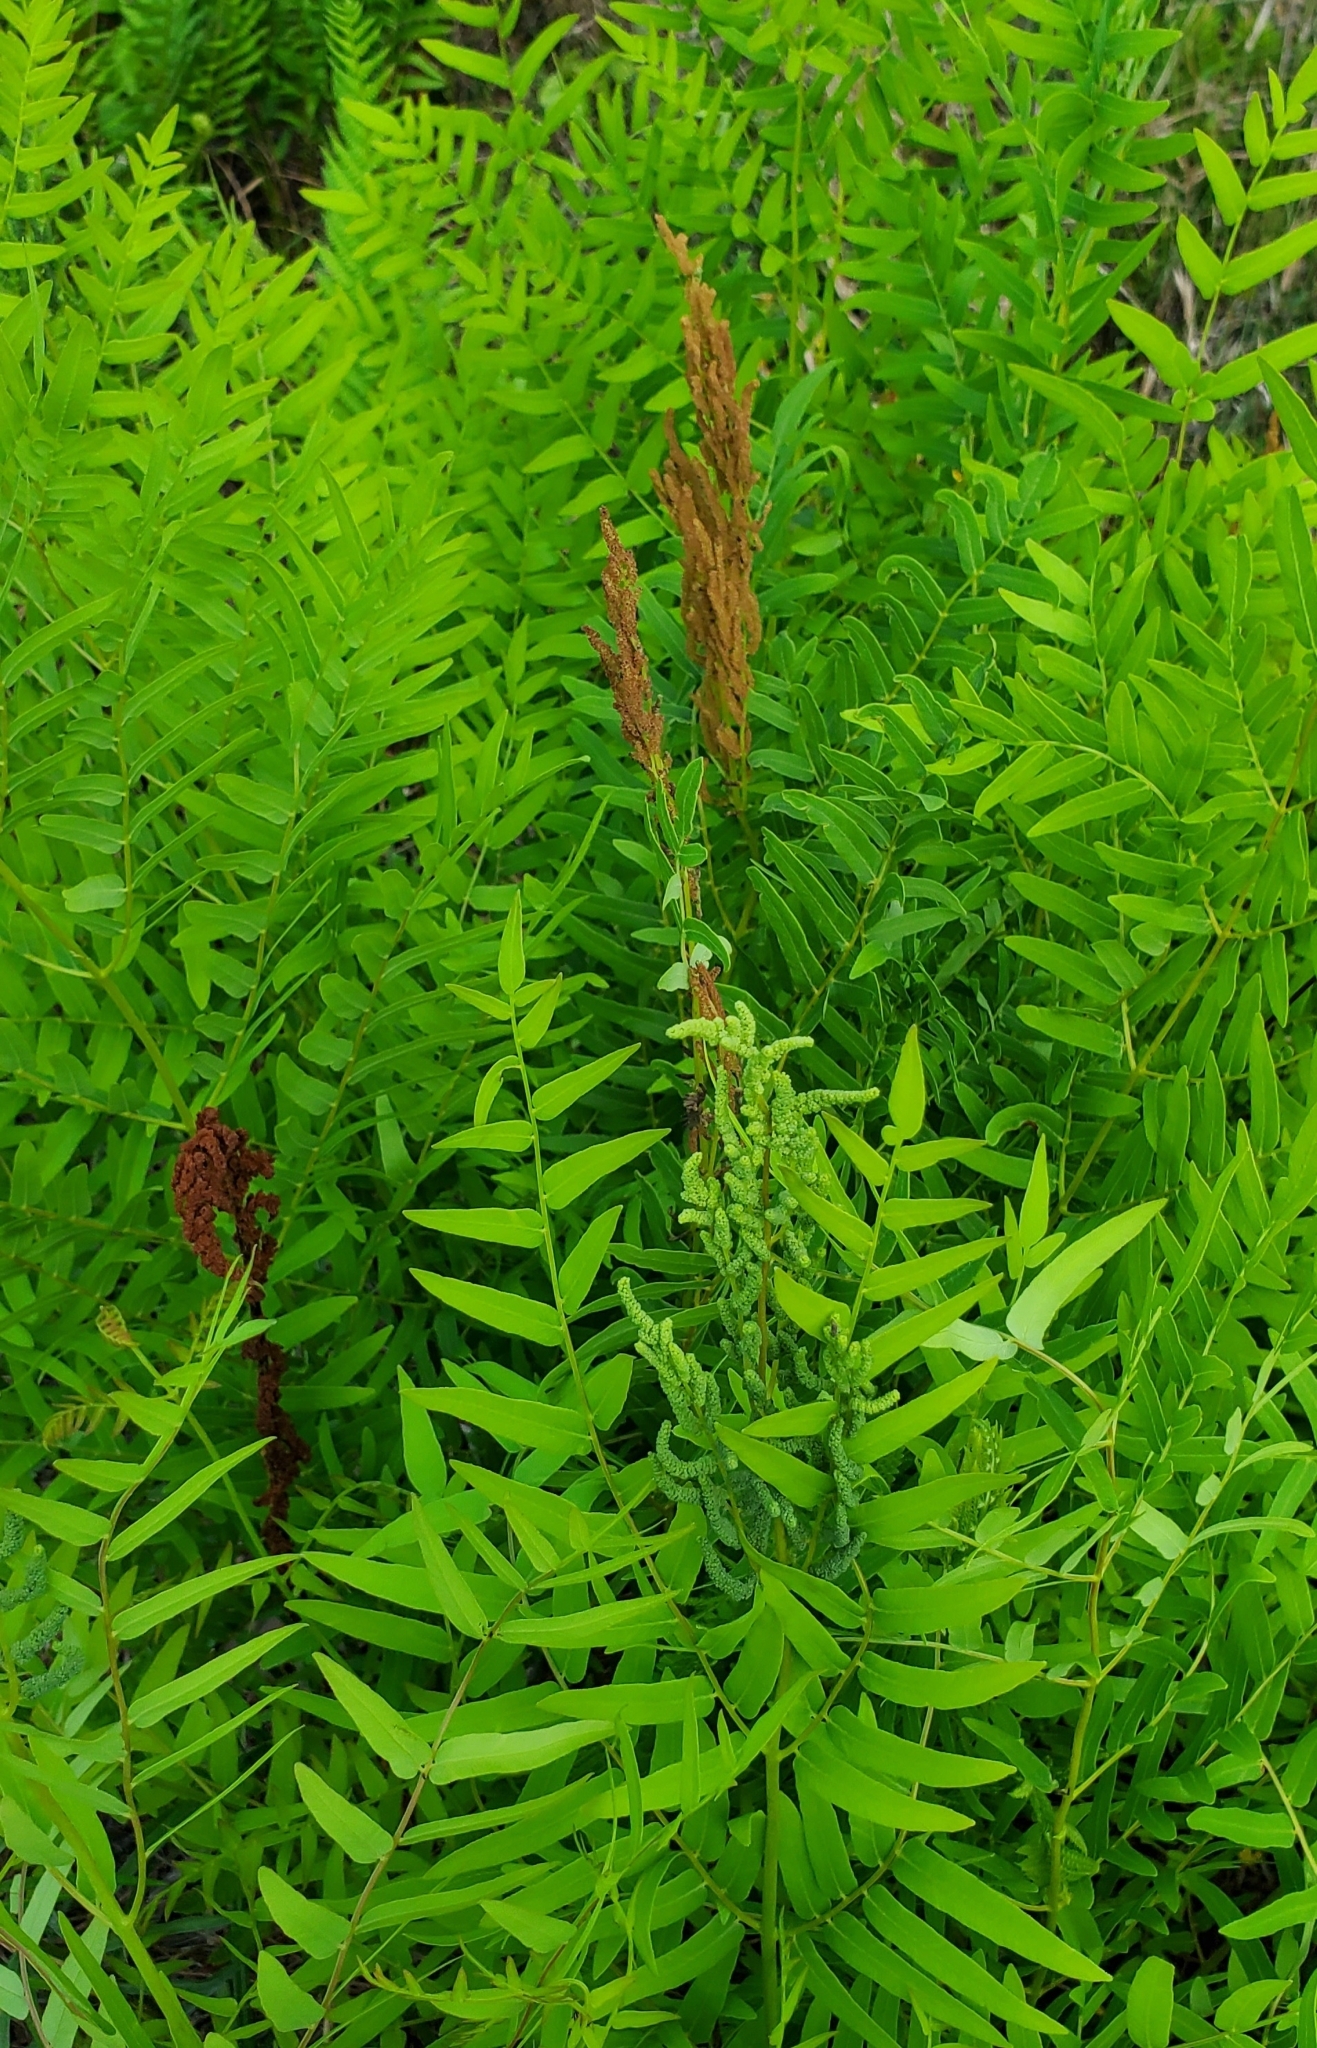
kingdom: Plantae
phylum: Tracheophyta
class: Polypodiopsida
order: Osmundales
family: Osmundaceae
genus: Osmunda
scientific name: Osmunda spectabilis
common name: American royal fern
